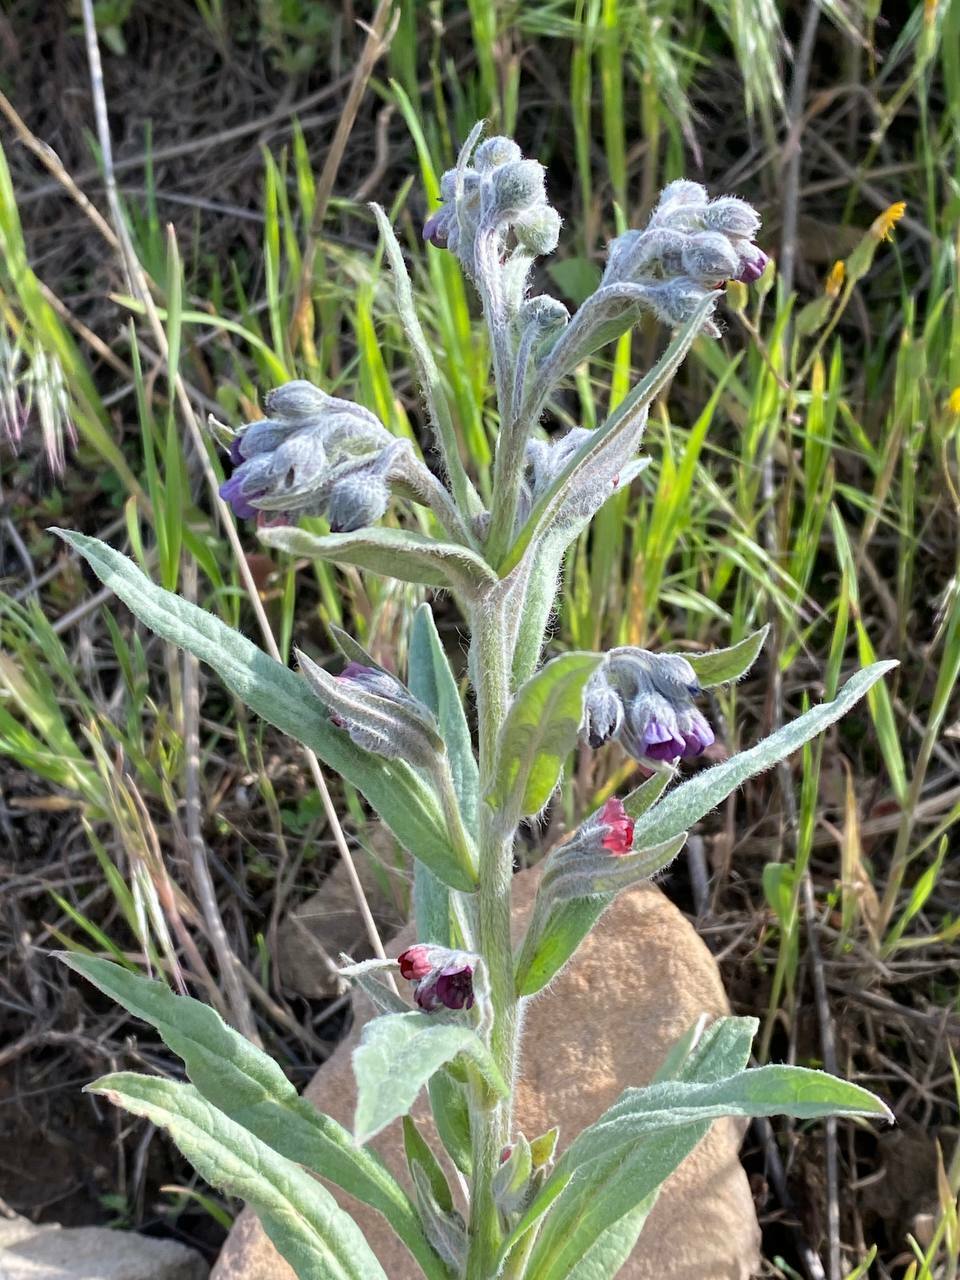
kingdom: Plantae
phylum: Tracheophyta
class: Magnoliopsida
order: Boraginales
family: Boraginaceae
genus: Cynoglossum
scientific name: Cynoglossum officinale
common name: Hound's-tongue
